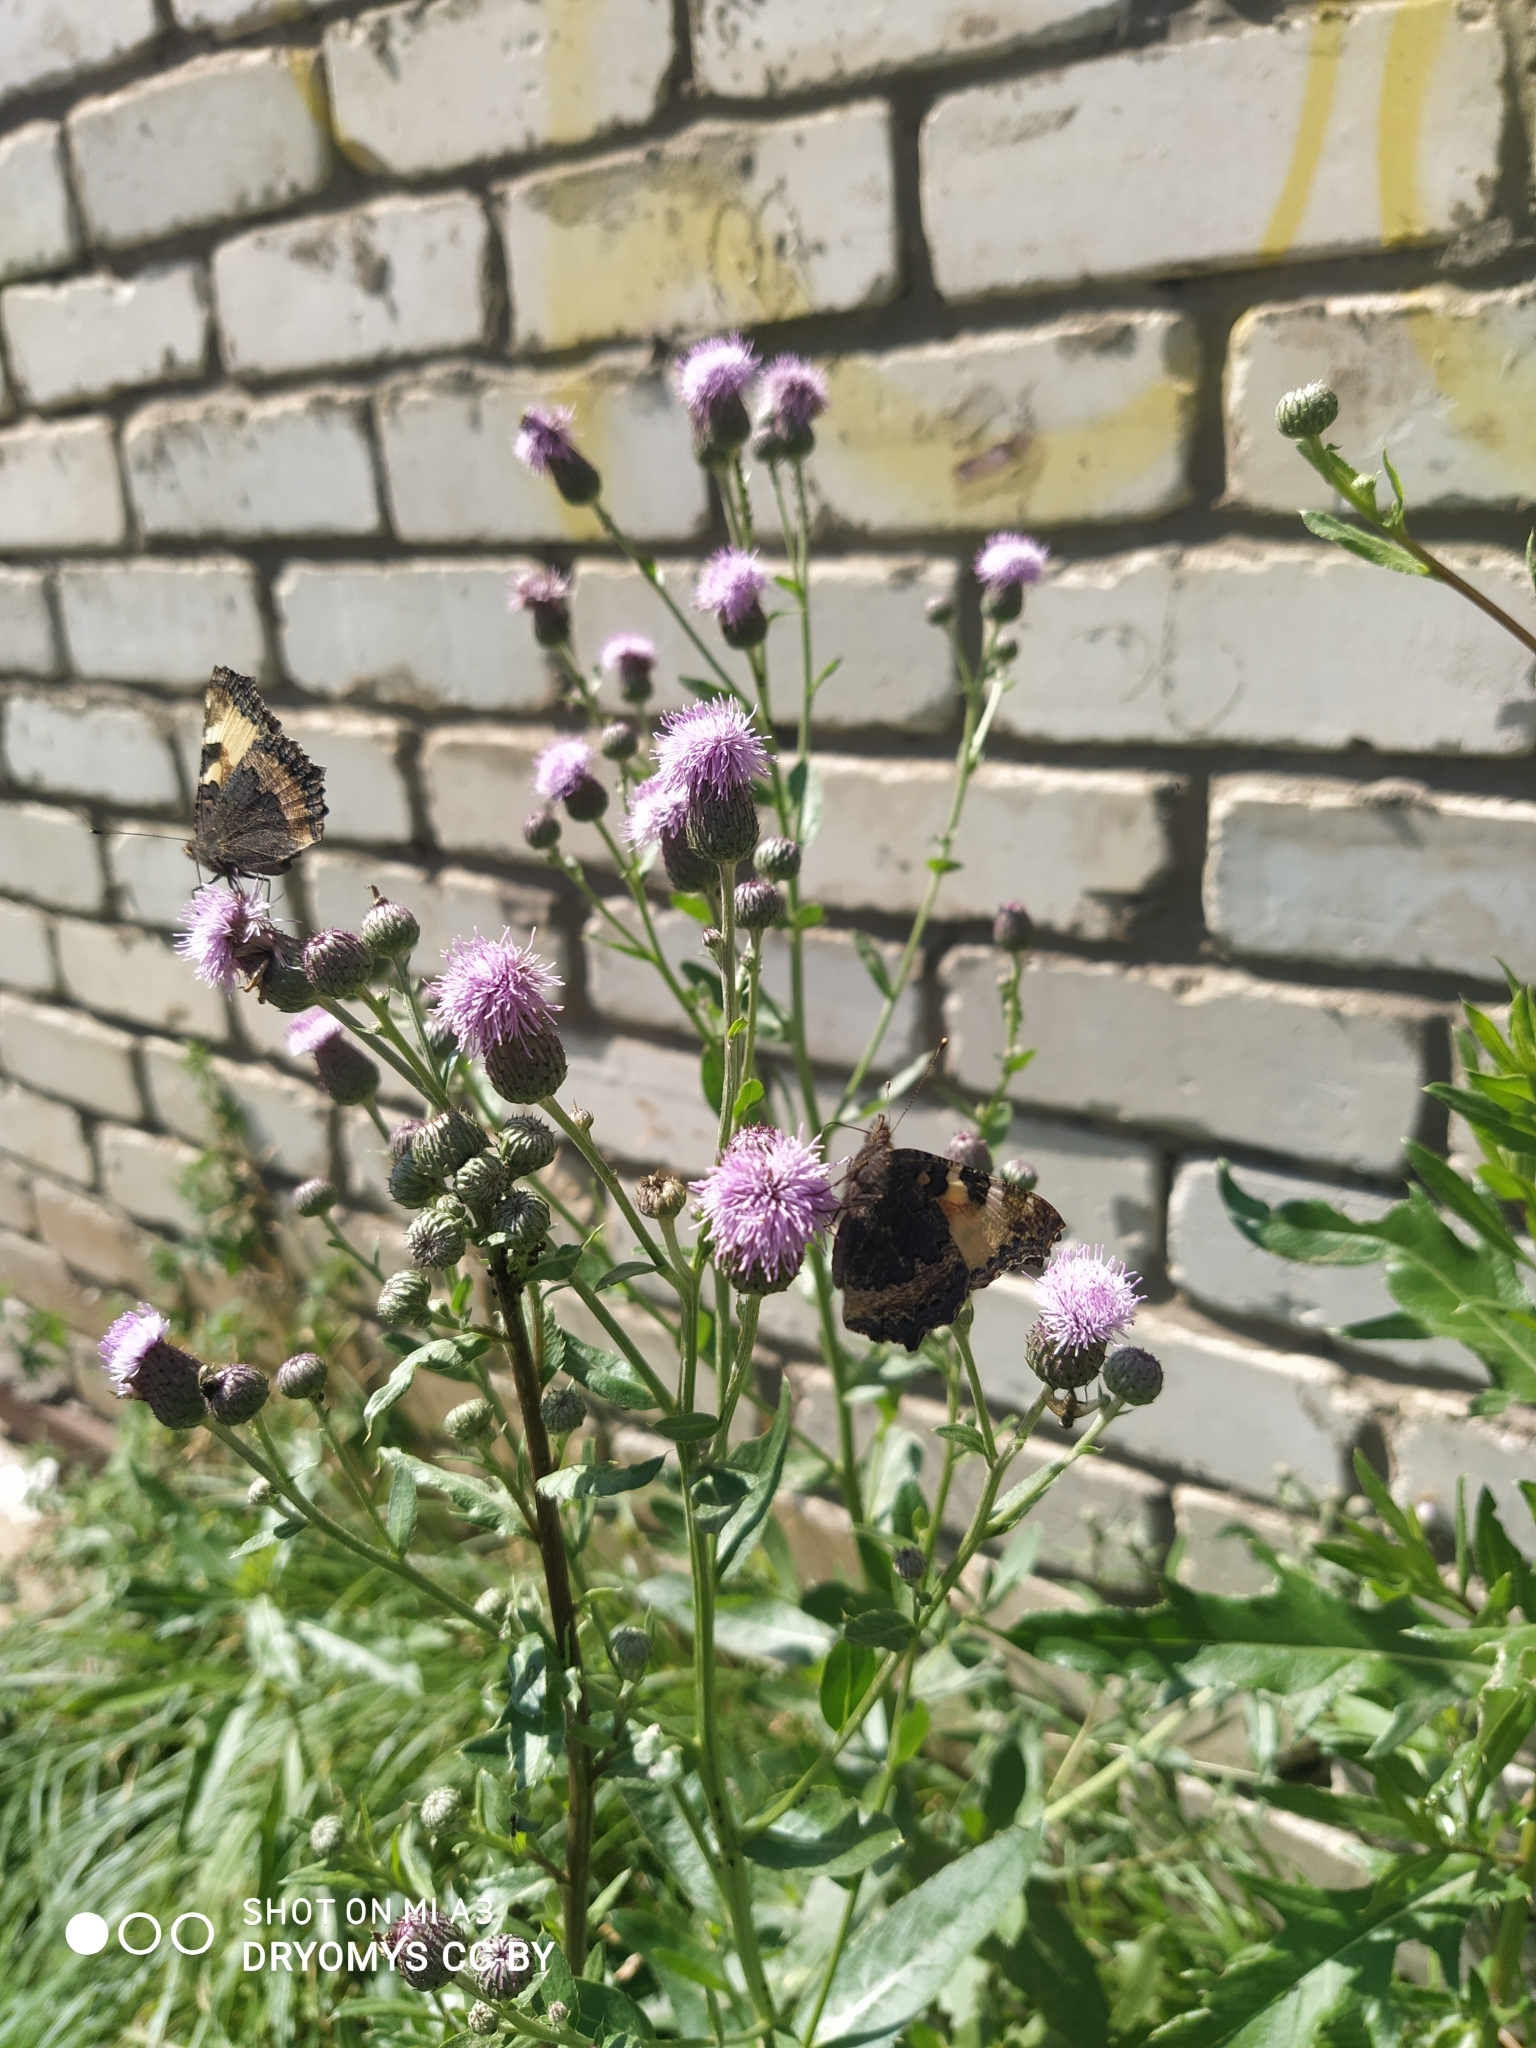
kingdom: Plantae
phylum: Tracheophyta
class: Magnoliopsida
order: Asterales
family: Asteraceae
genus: Cirsium
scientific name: Cirsium arvense
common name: Creeping thistle
